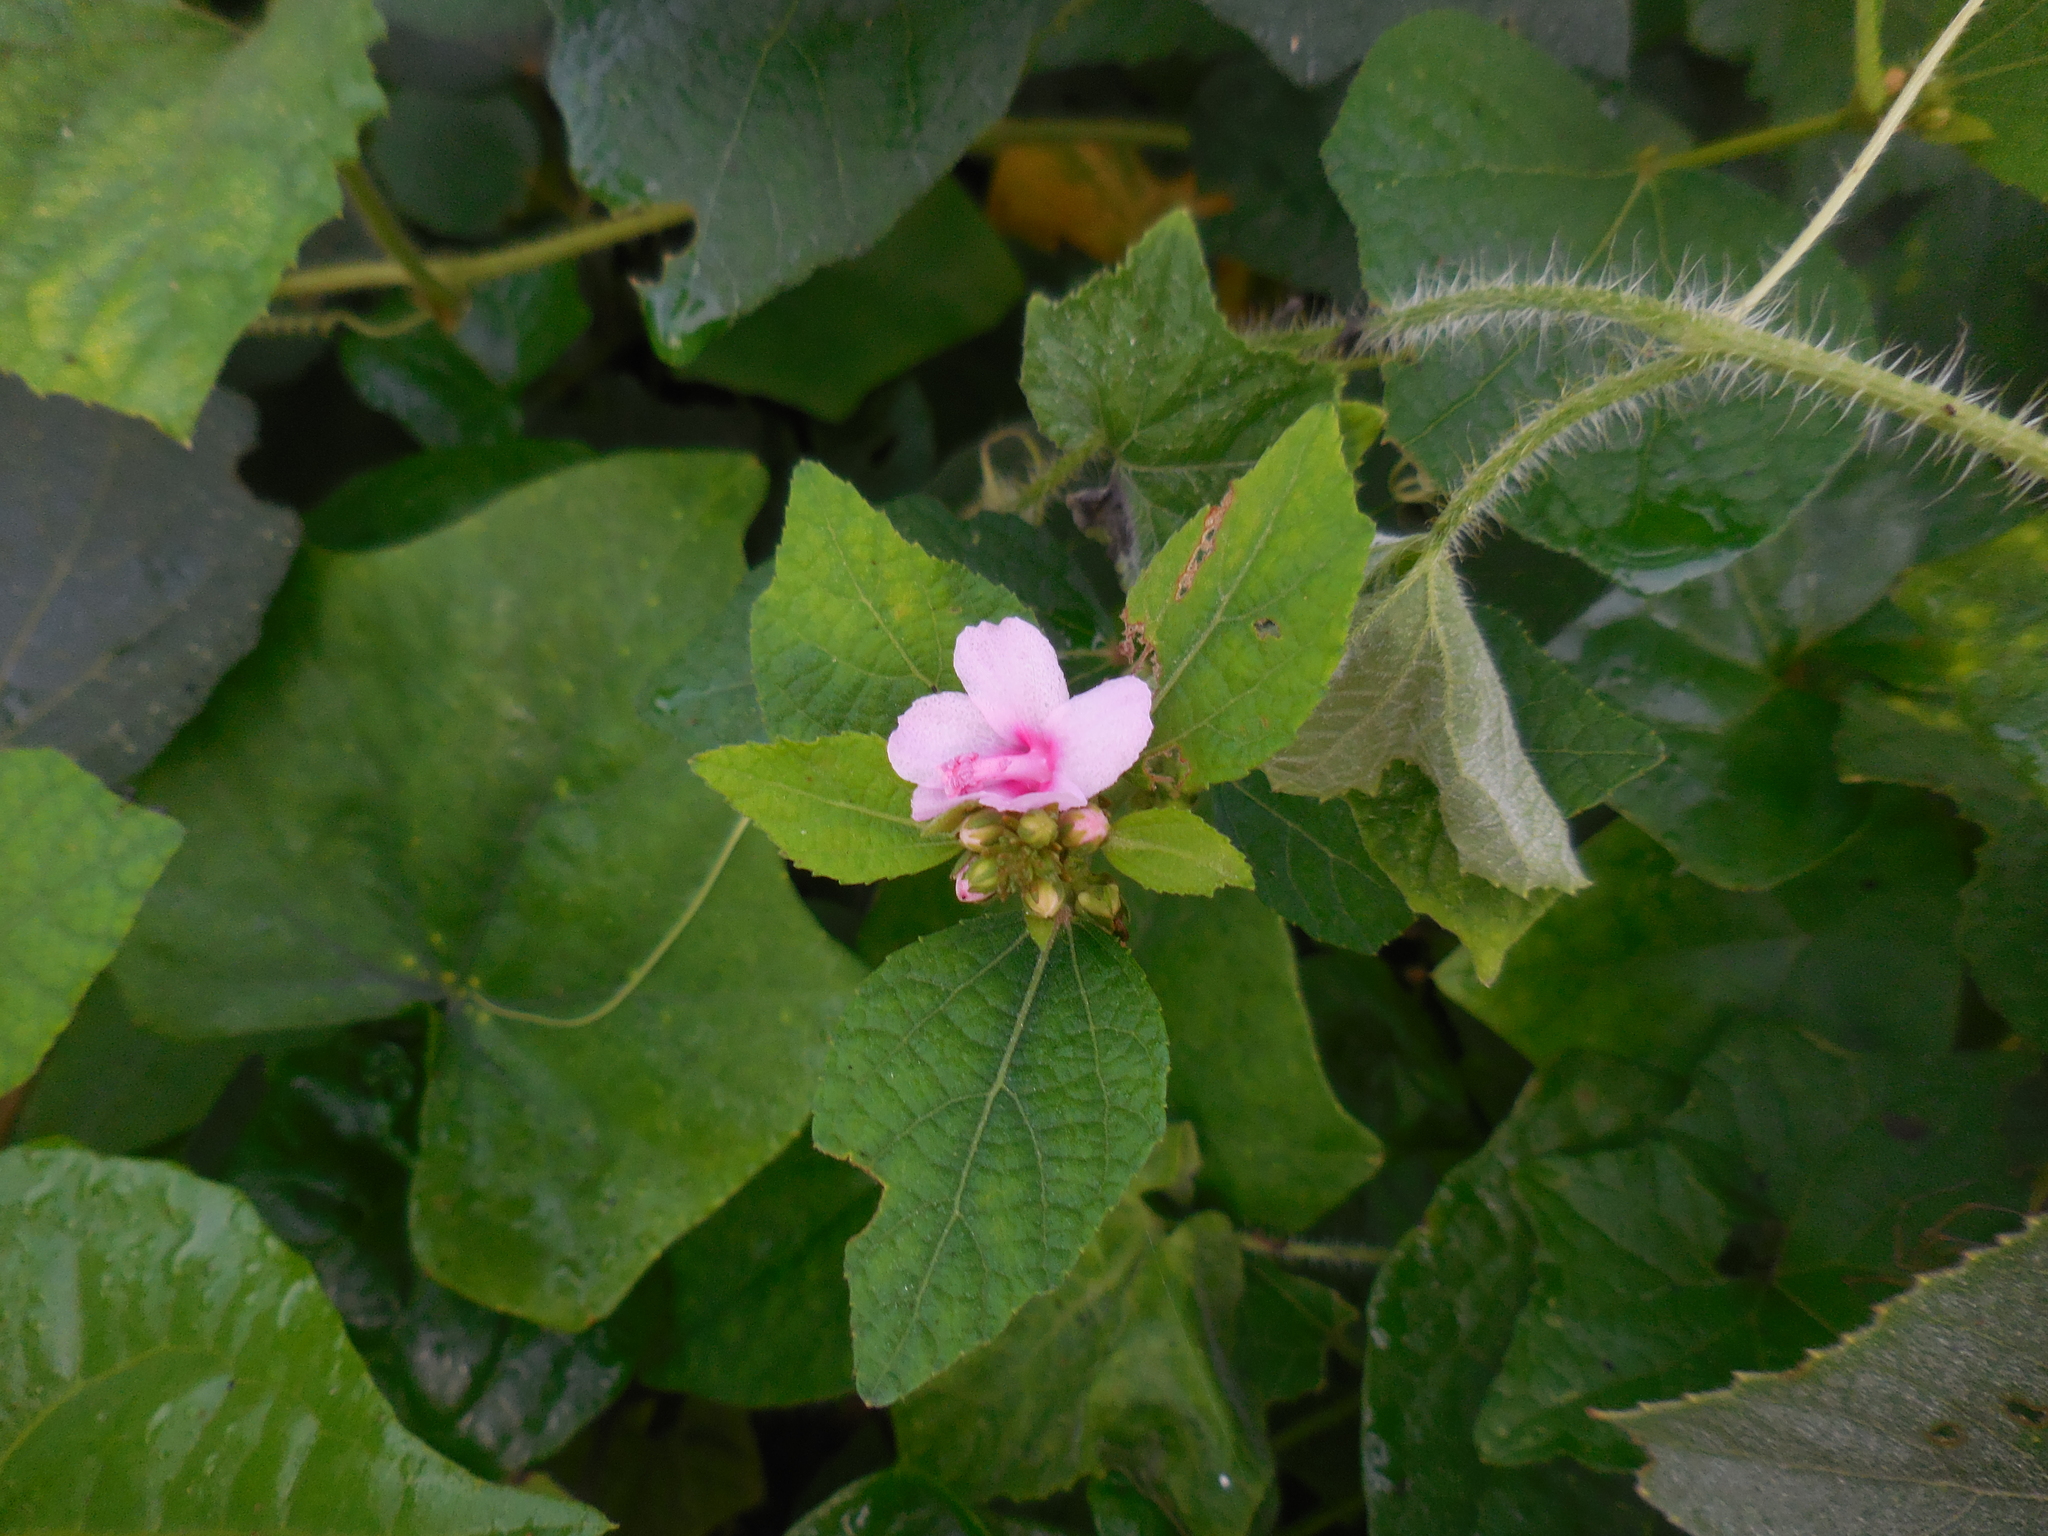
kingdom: Plantae
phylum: Tracheophyta
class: Magnoliopsida
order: Malvales
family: Malvaceae
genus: Urena
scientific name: Urena lobata
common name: Caesarweed
